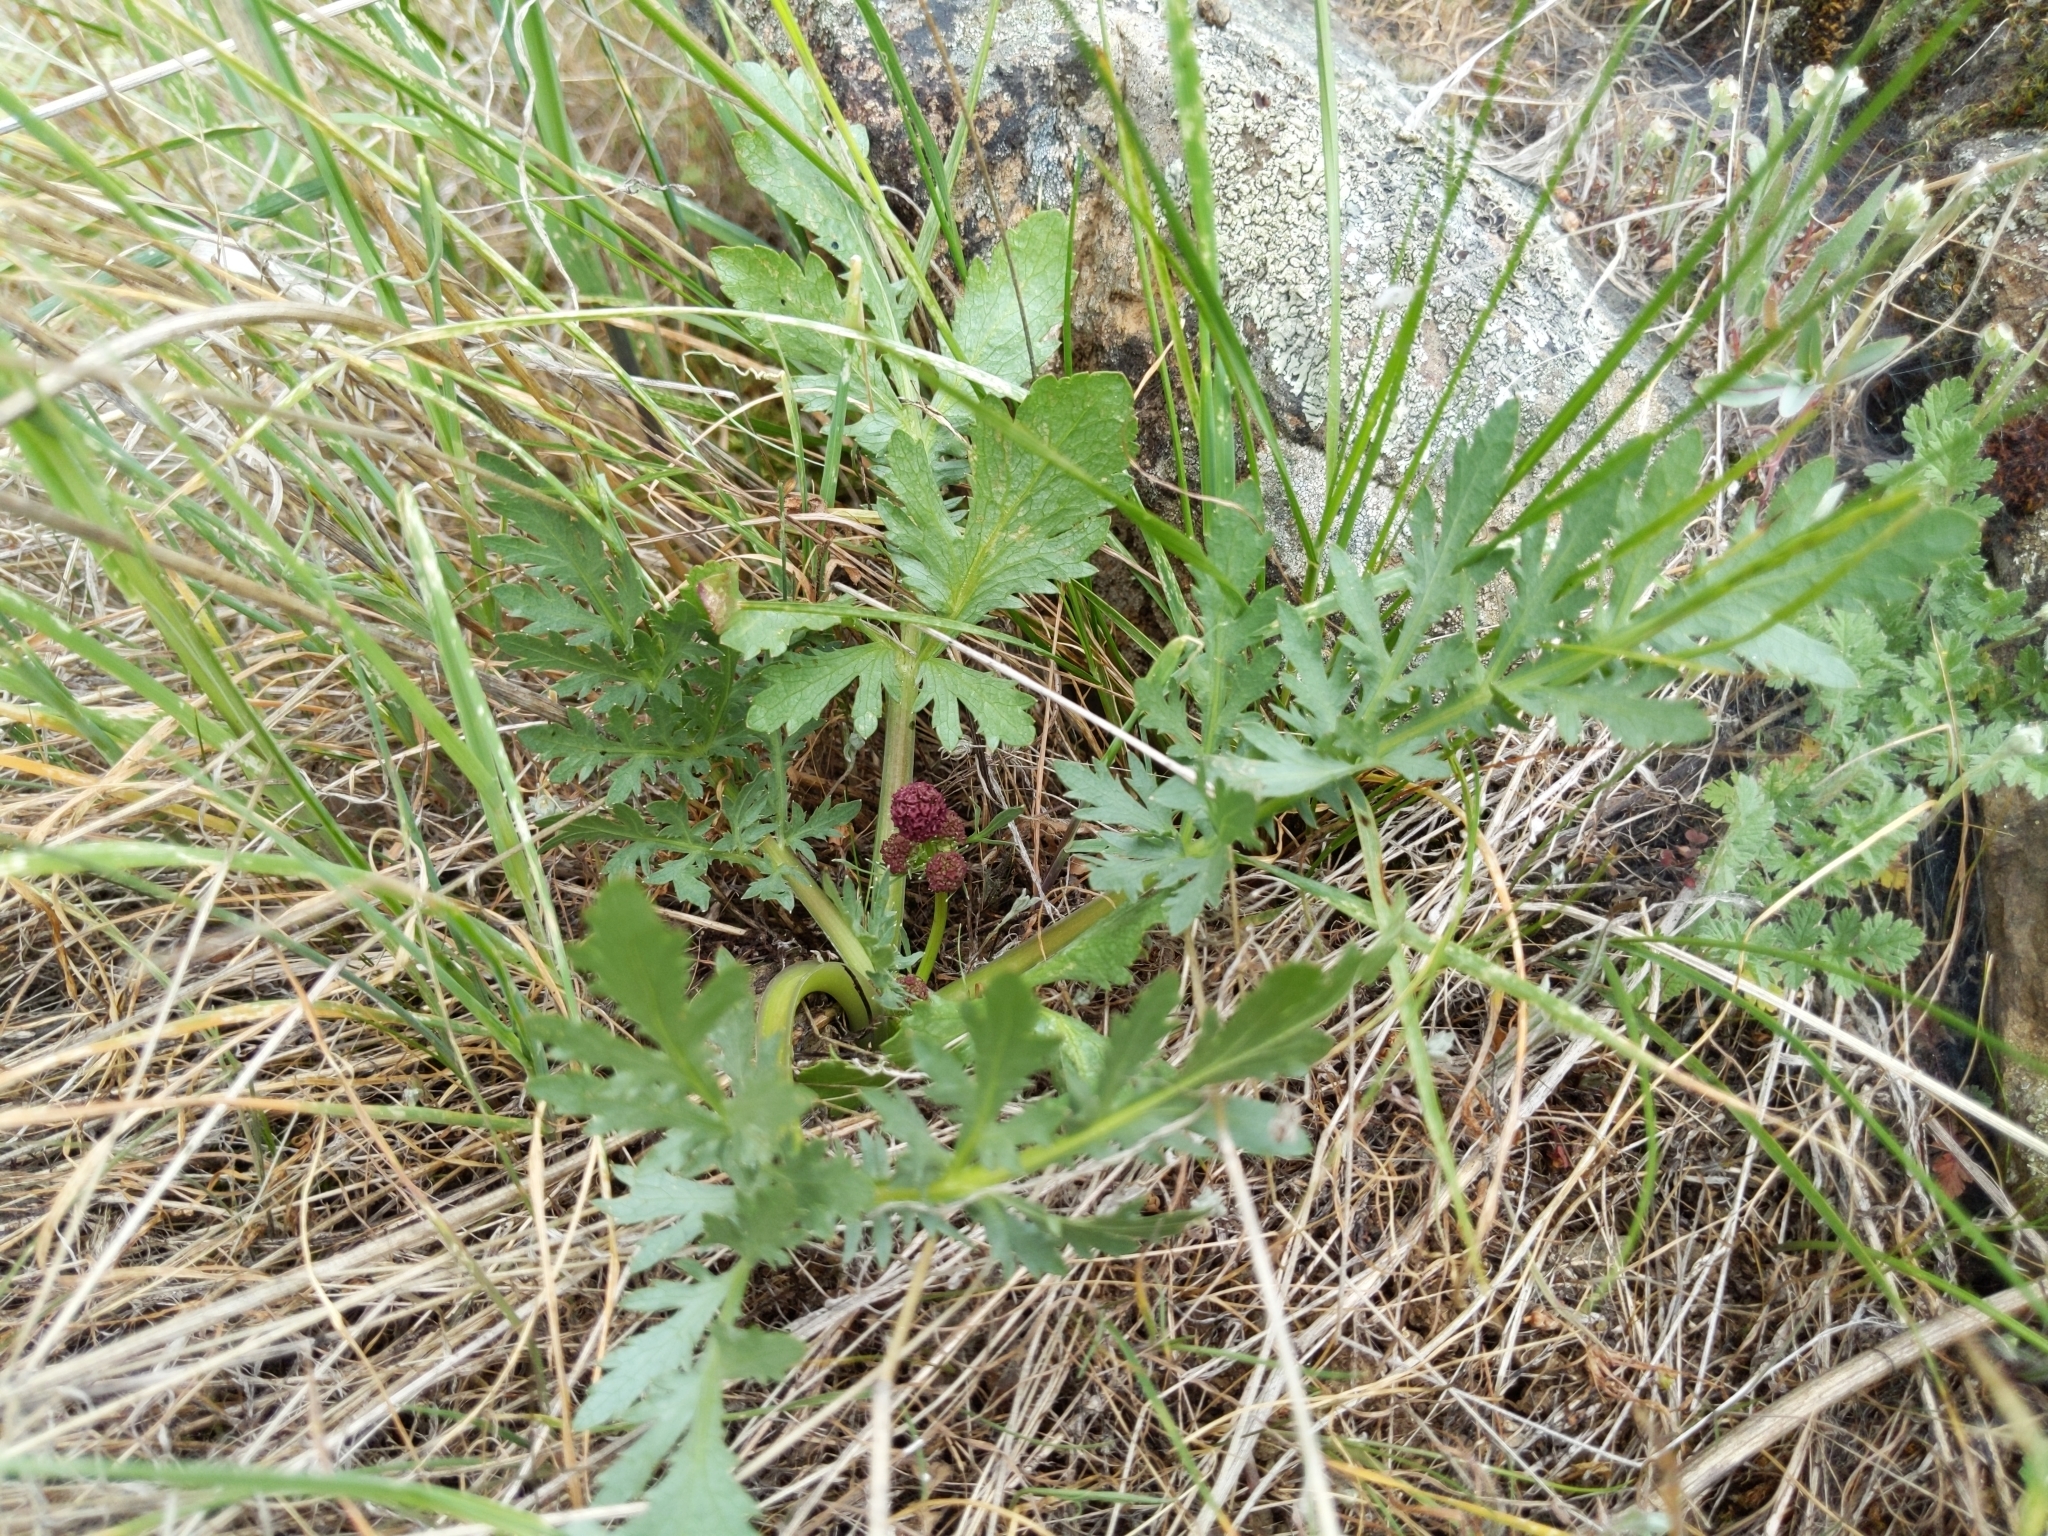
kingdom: Plantae
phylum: Tracheophyta
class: Magnoliopsida
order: Apiales
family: Apiaceae
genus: Sanicula
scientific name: Sanicula bipinnatifida
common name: Shoe-buttons
